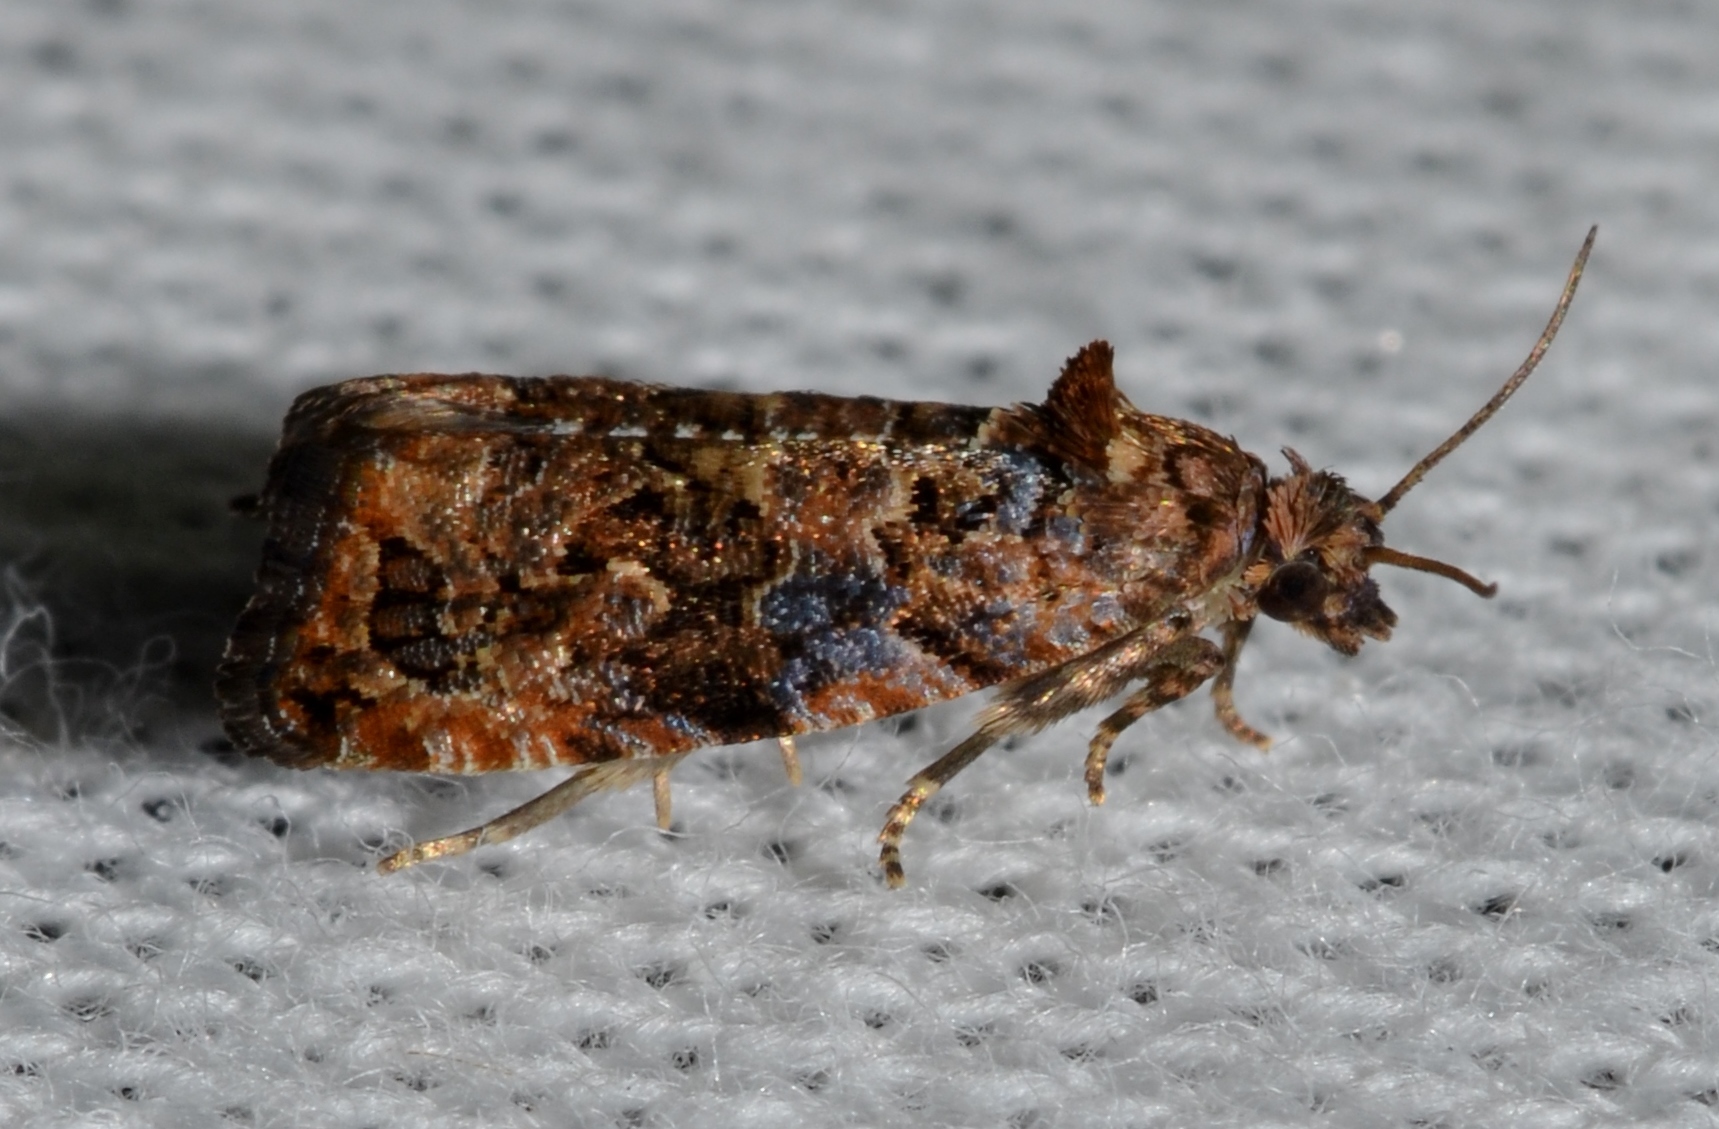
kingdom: Animalia
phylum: Arthropoda
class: Insecta
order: Lepidoptera
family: Tortricidae
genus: Endothenia
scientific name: Endothenia hebesana
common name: Verbena bud moth
